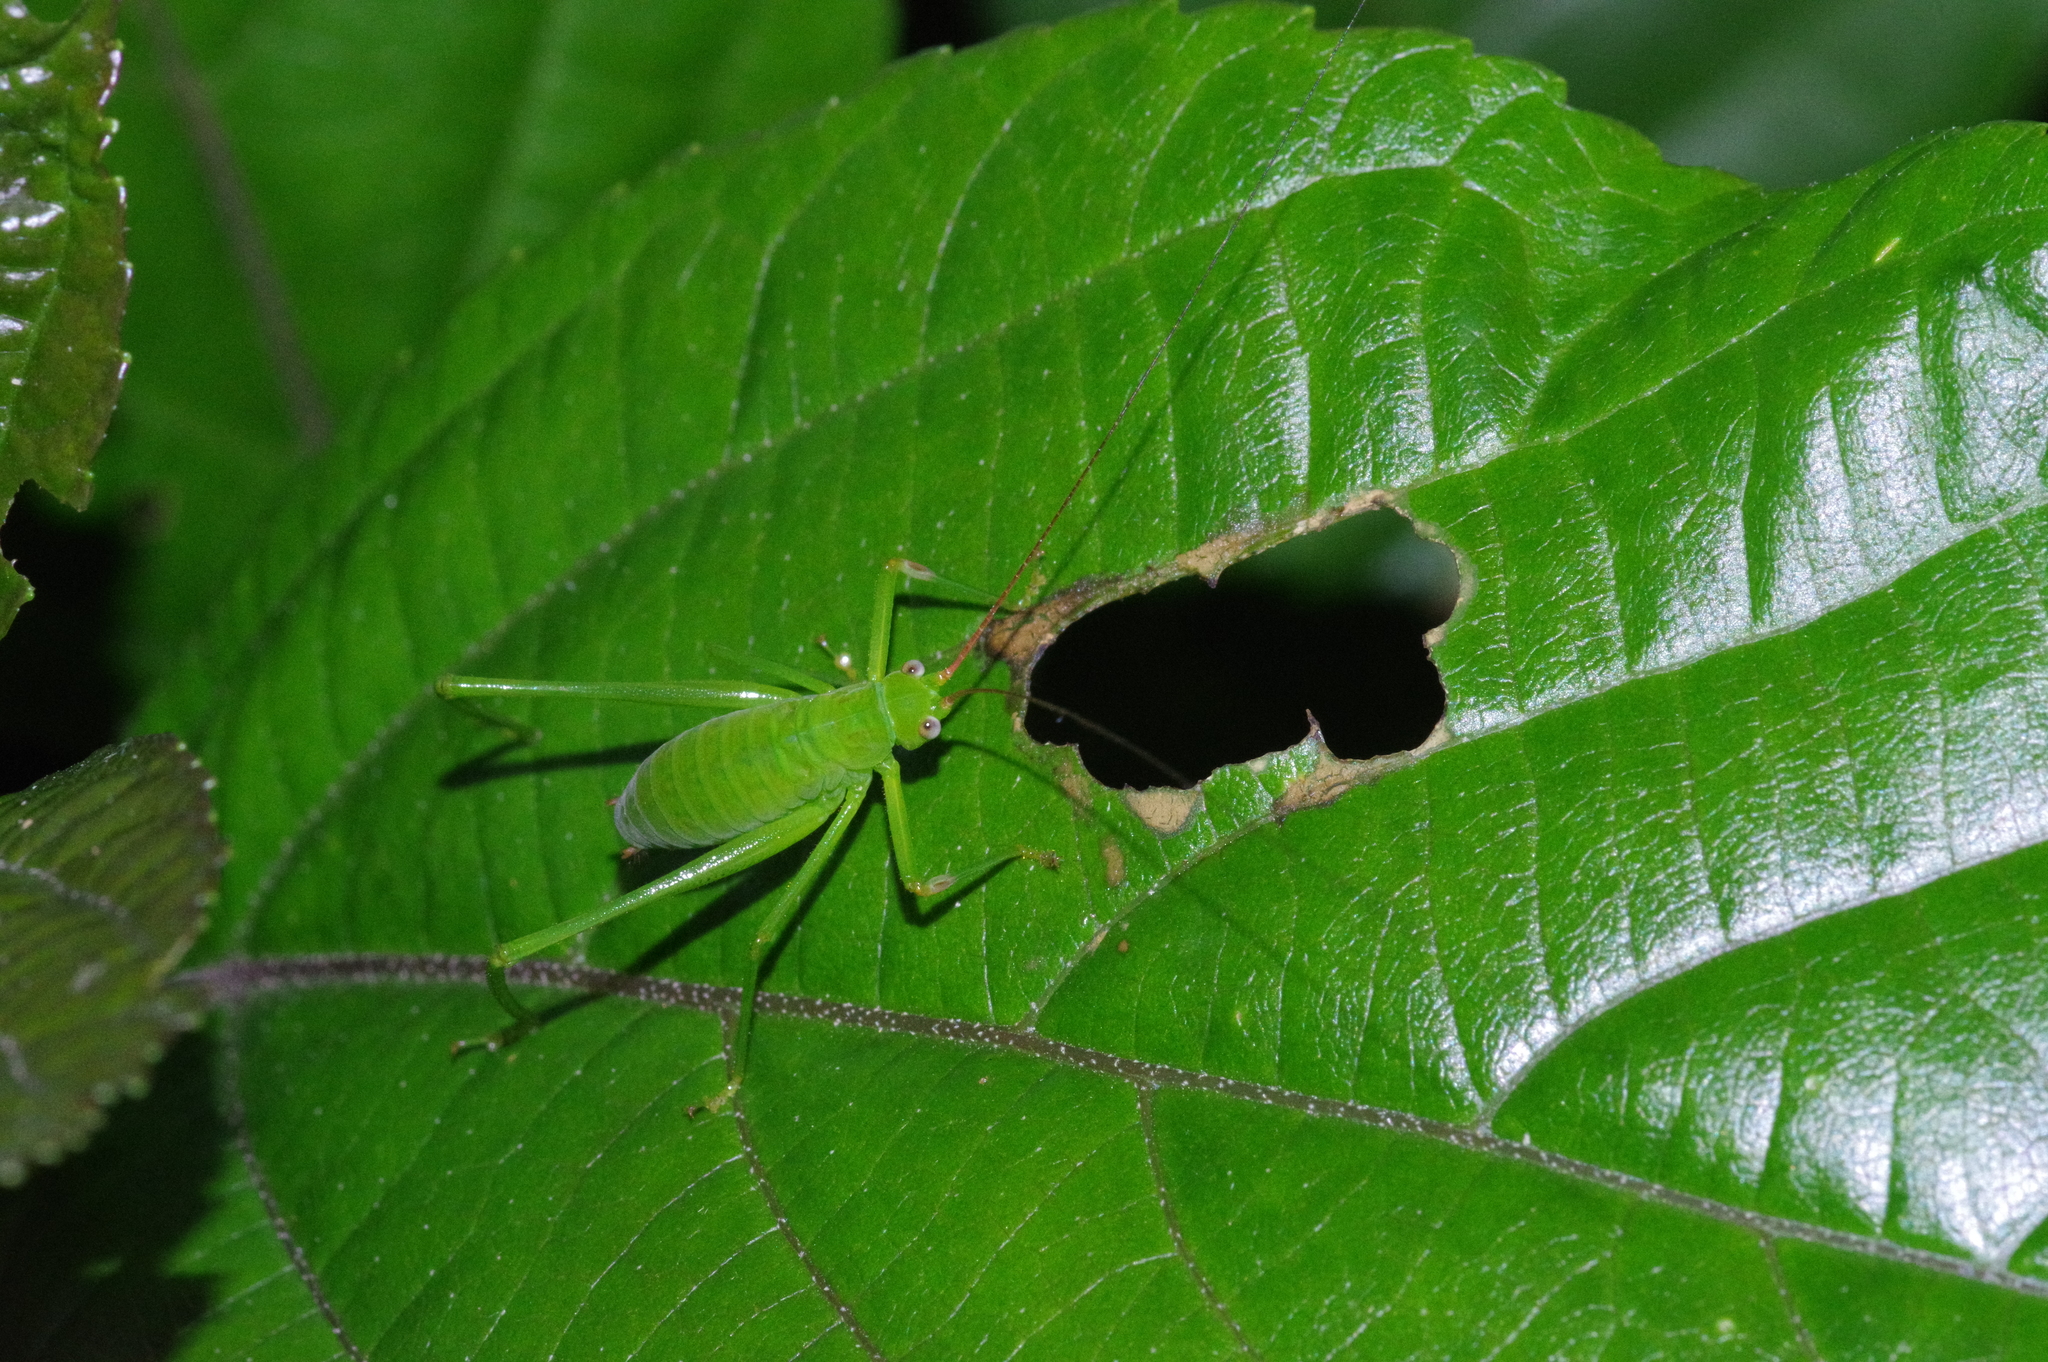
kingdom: Animalia
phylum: Arthropoda
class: Insecta
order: Orthoptera
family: Tettigoniidae
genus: Psyrana
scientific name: Psyrana ryukyuensis
